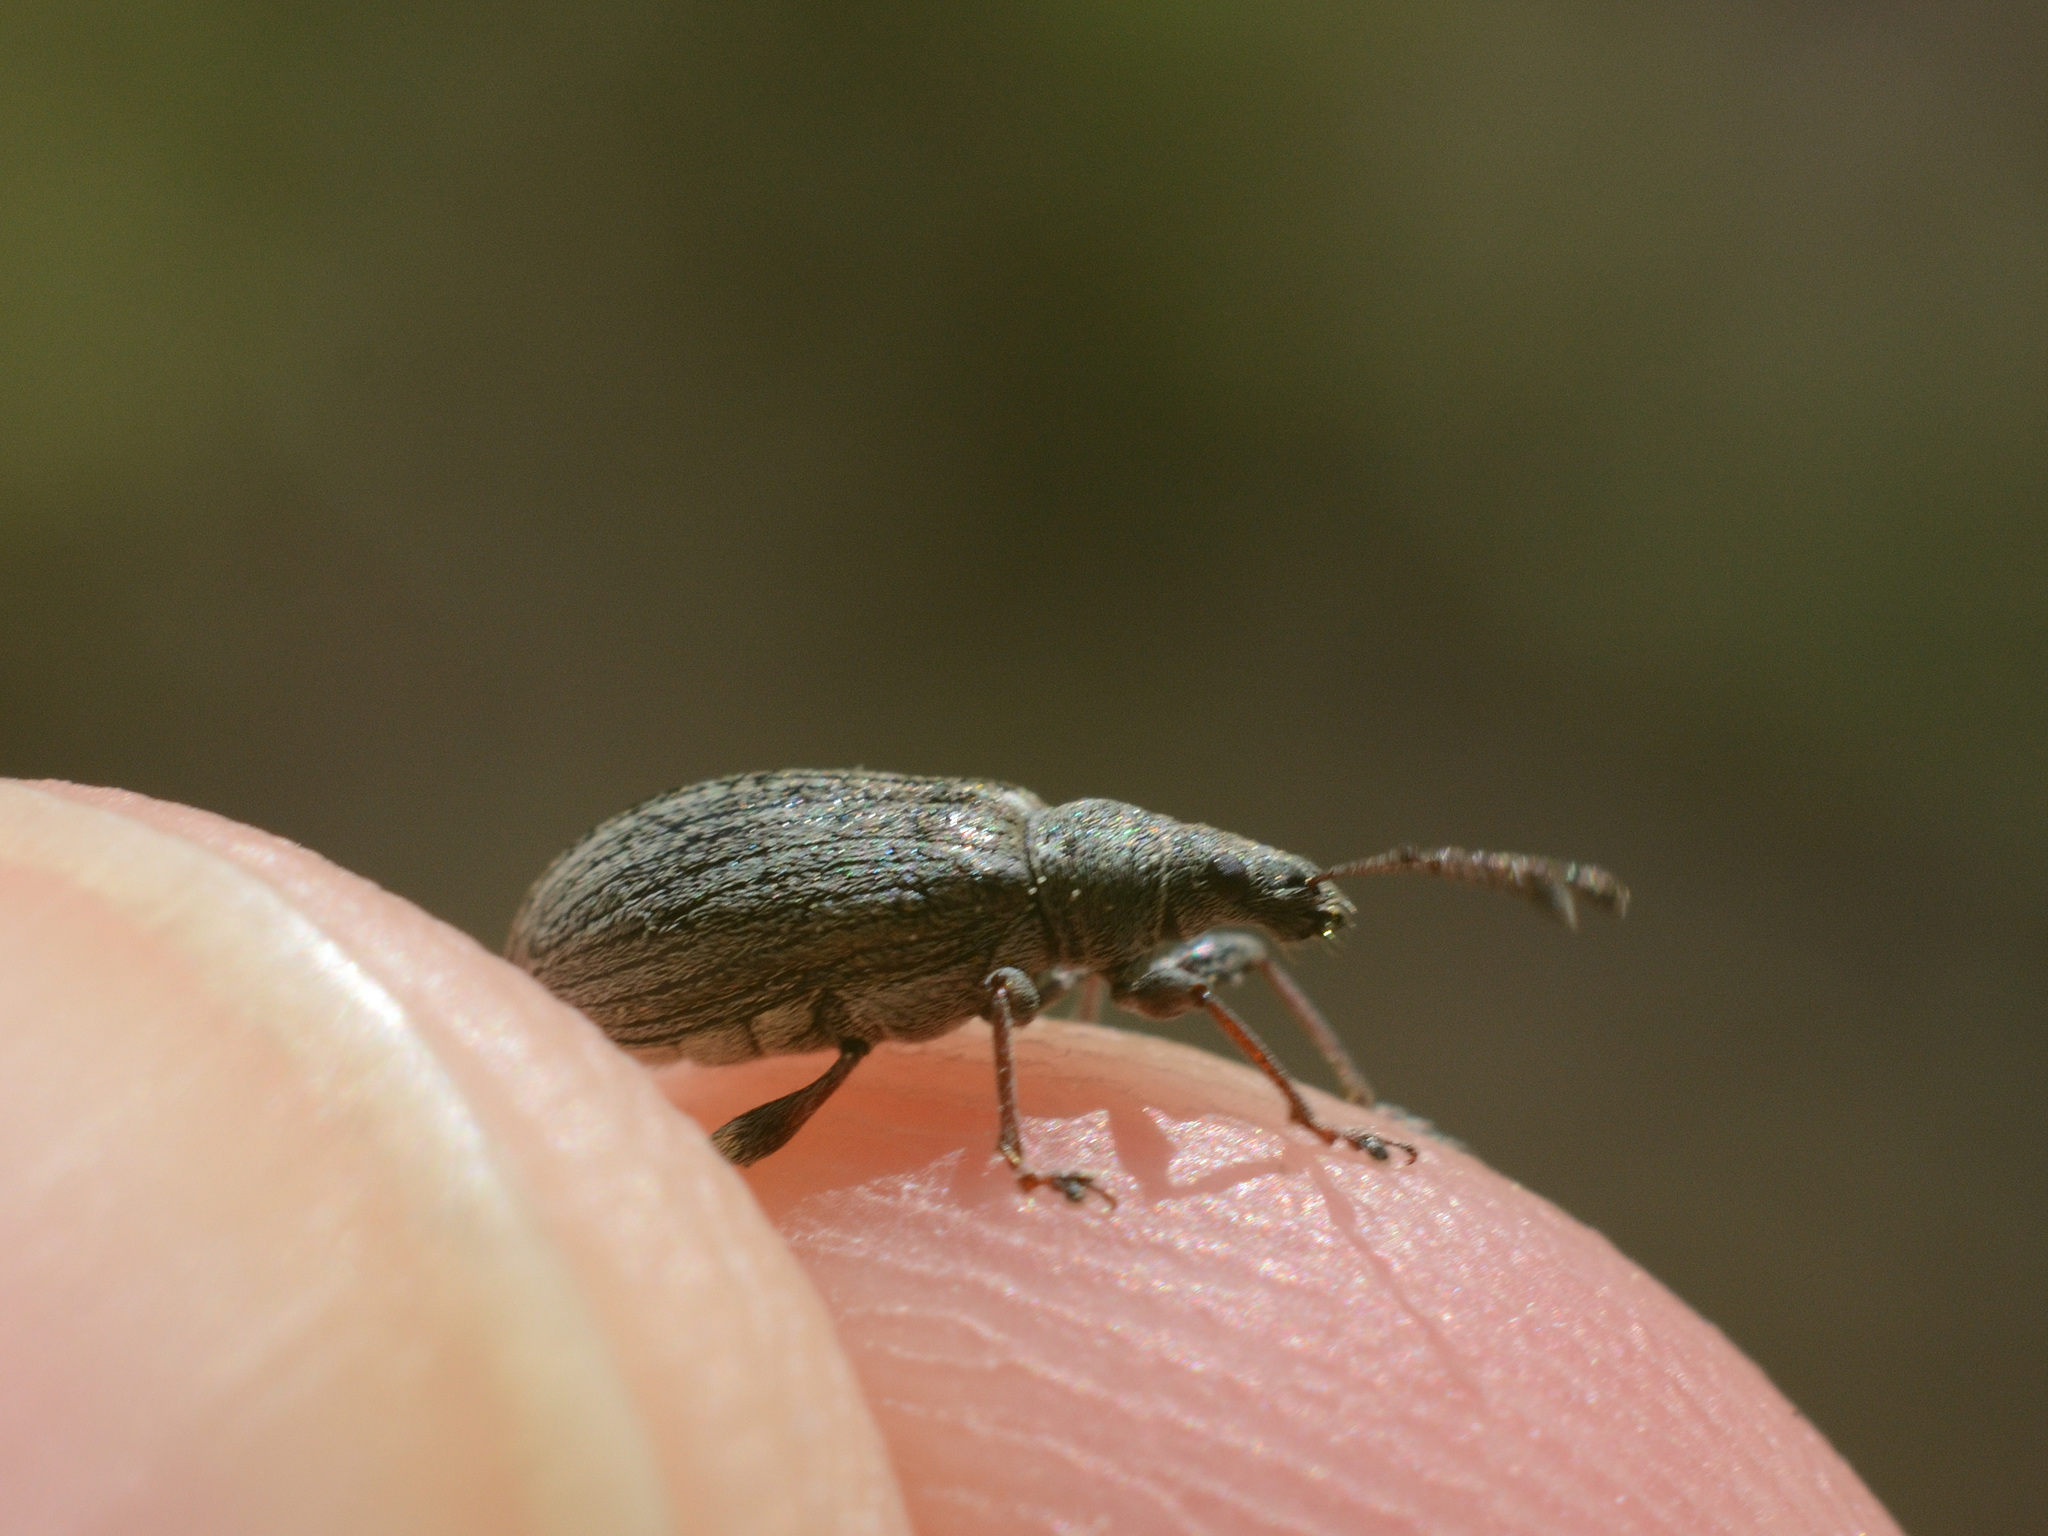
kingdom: Animalia
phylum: Arthropoda
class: Insecta
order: Coleoptera
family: Curculionidae
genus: Phyllobius
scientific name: Phyllobius pyri
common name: Common leaf weevil
